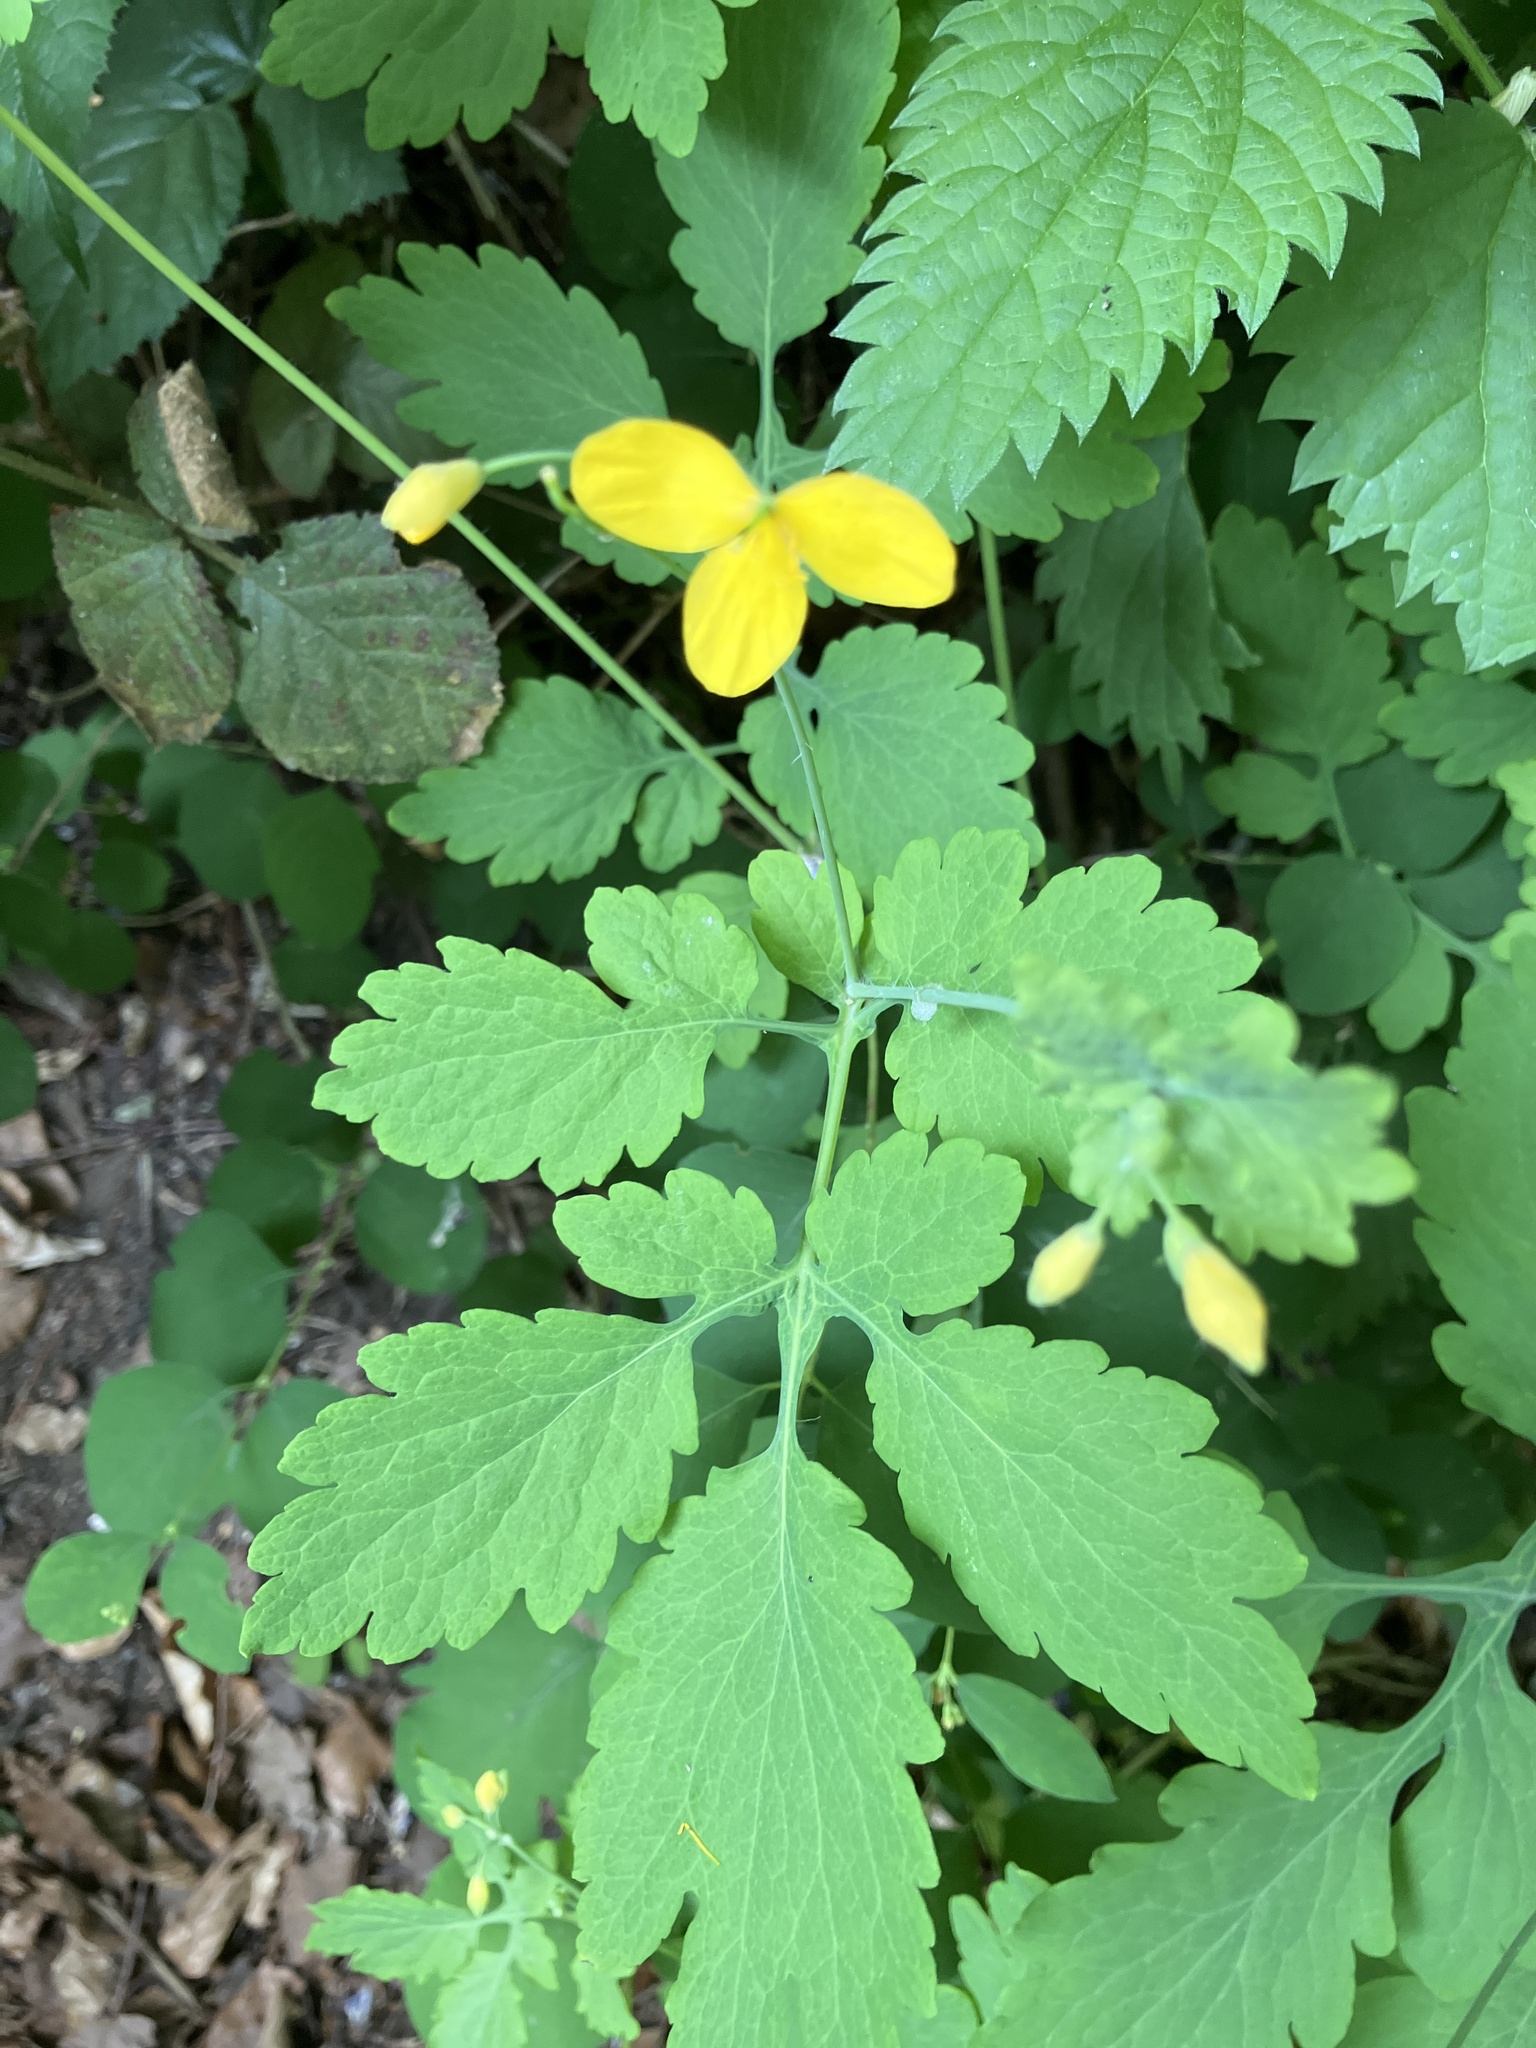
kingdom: Plantae
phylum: Tracheophyta
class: Magnoliopsida
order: Ranunculales
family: Papaveraceae
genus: Chelidonium
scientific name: Chelidonium majus
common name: Greater celandine
